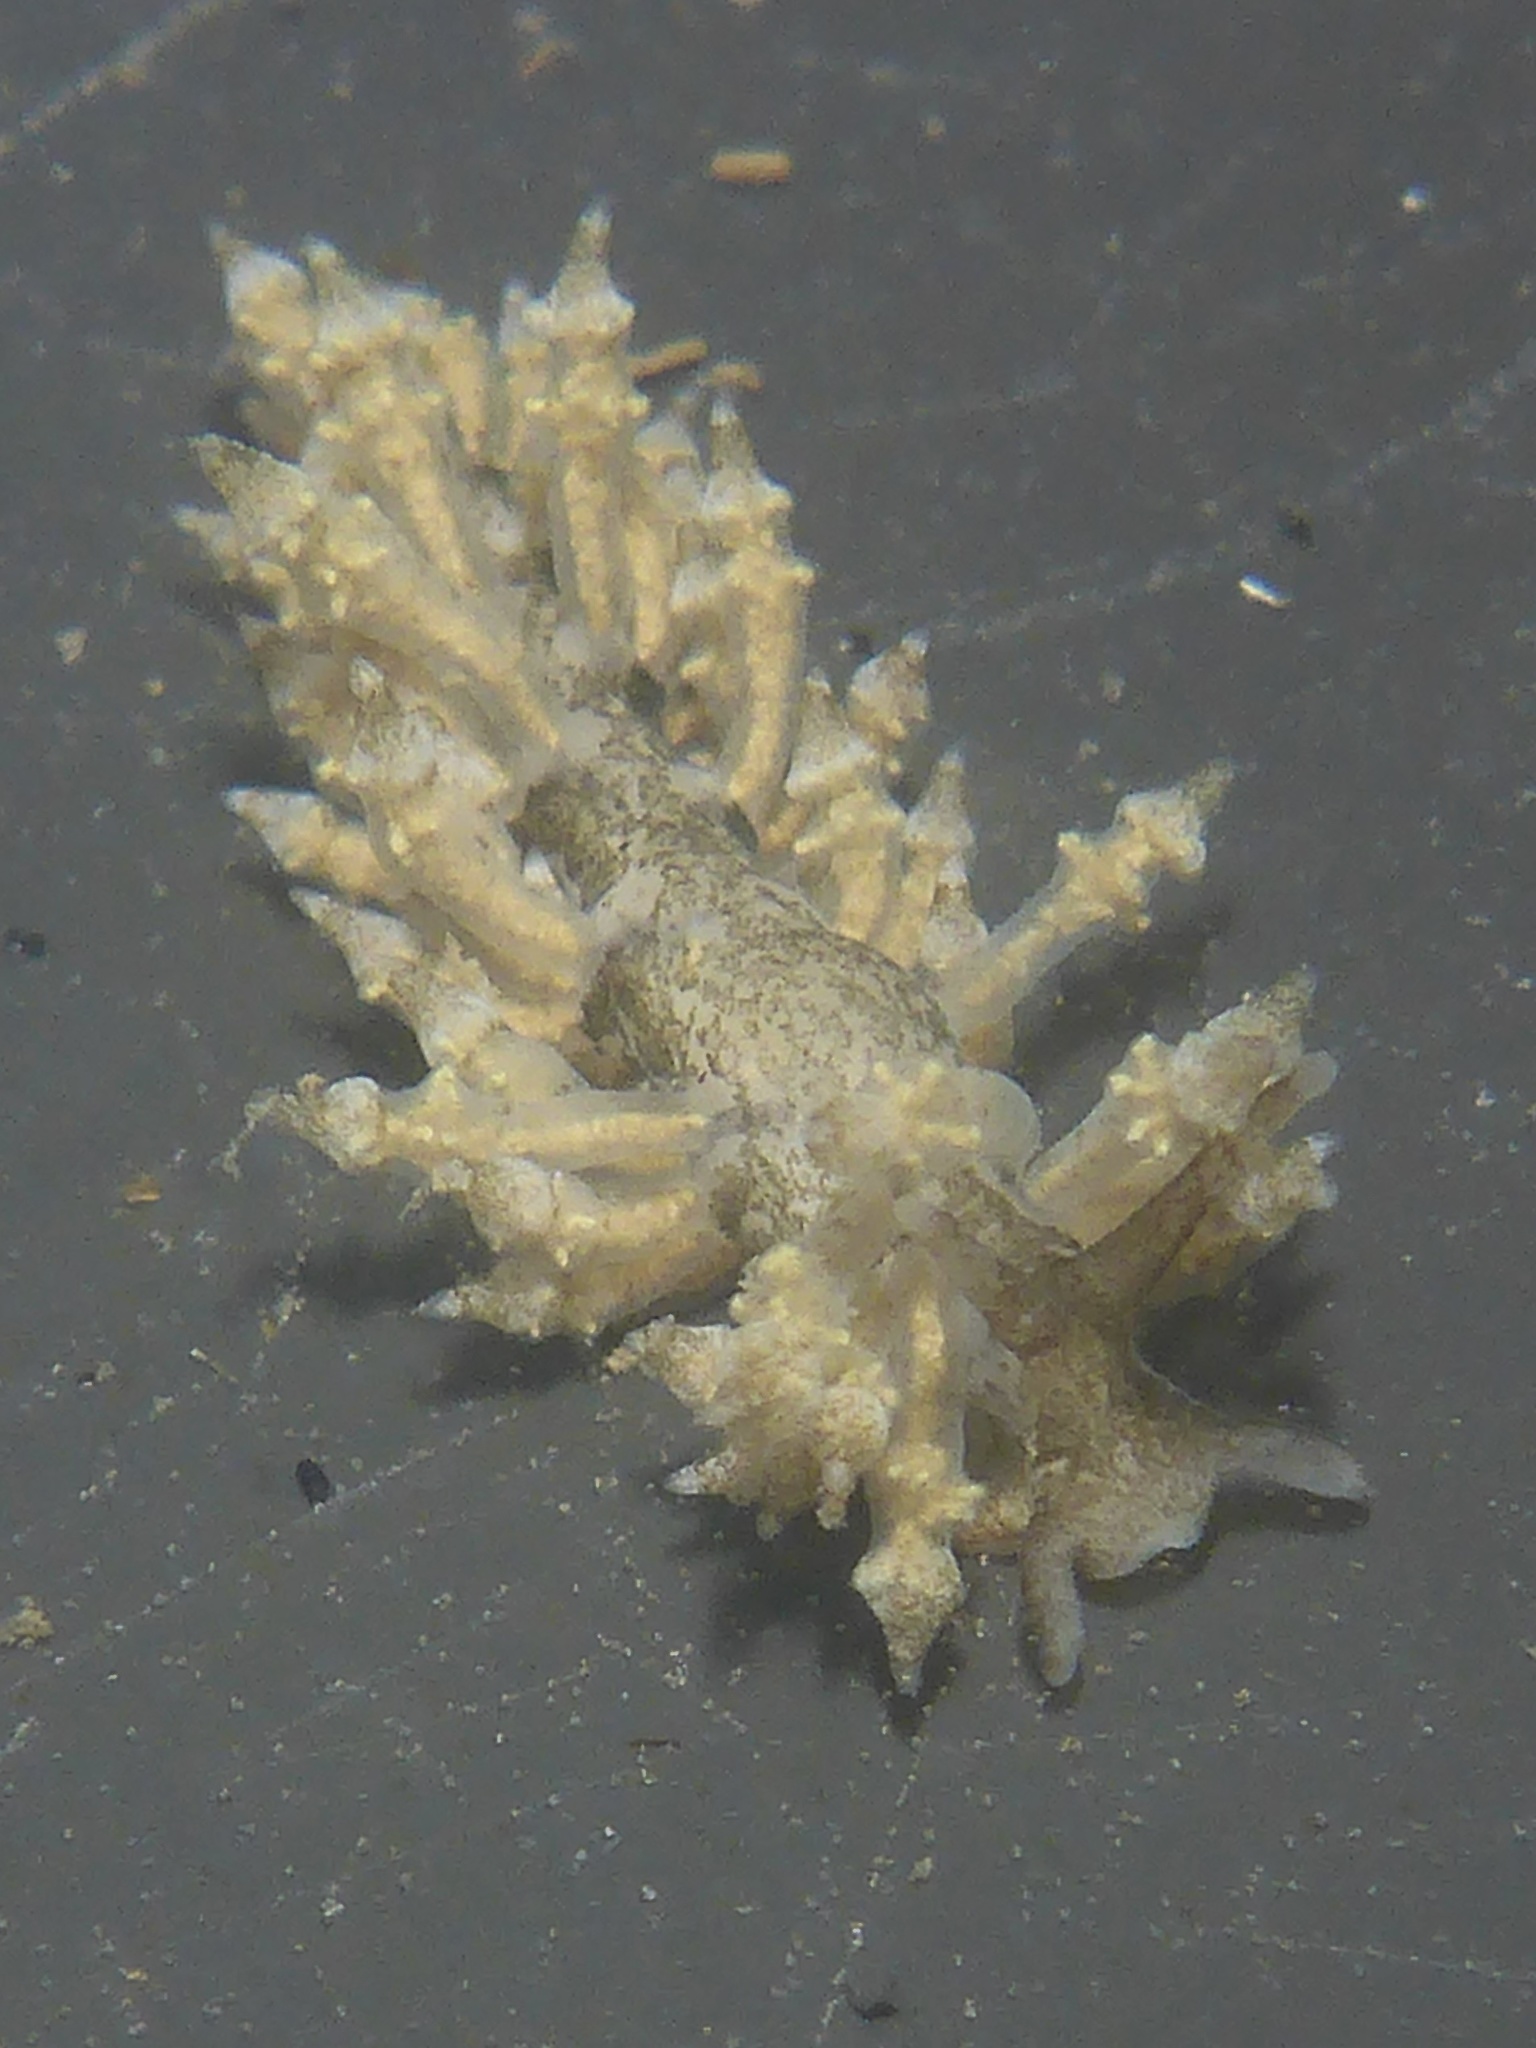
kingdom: Animalia
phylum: Mollusca
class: Gastropoda
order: Nudibranchia
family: Eubranchidae
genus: Eubranchus
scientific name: Eubranchus rustyus
